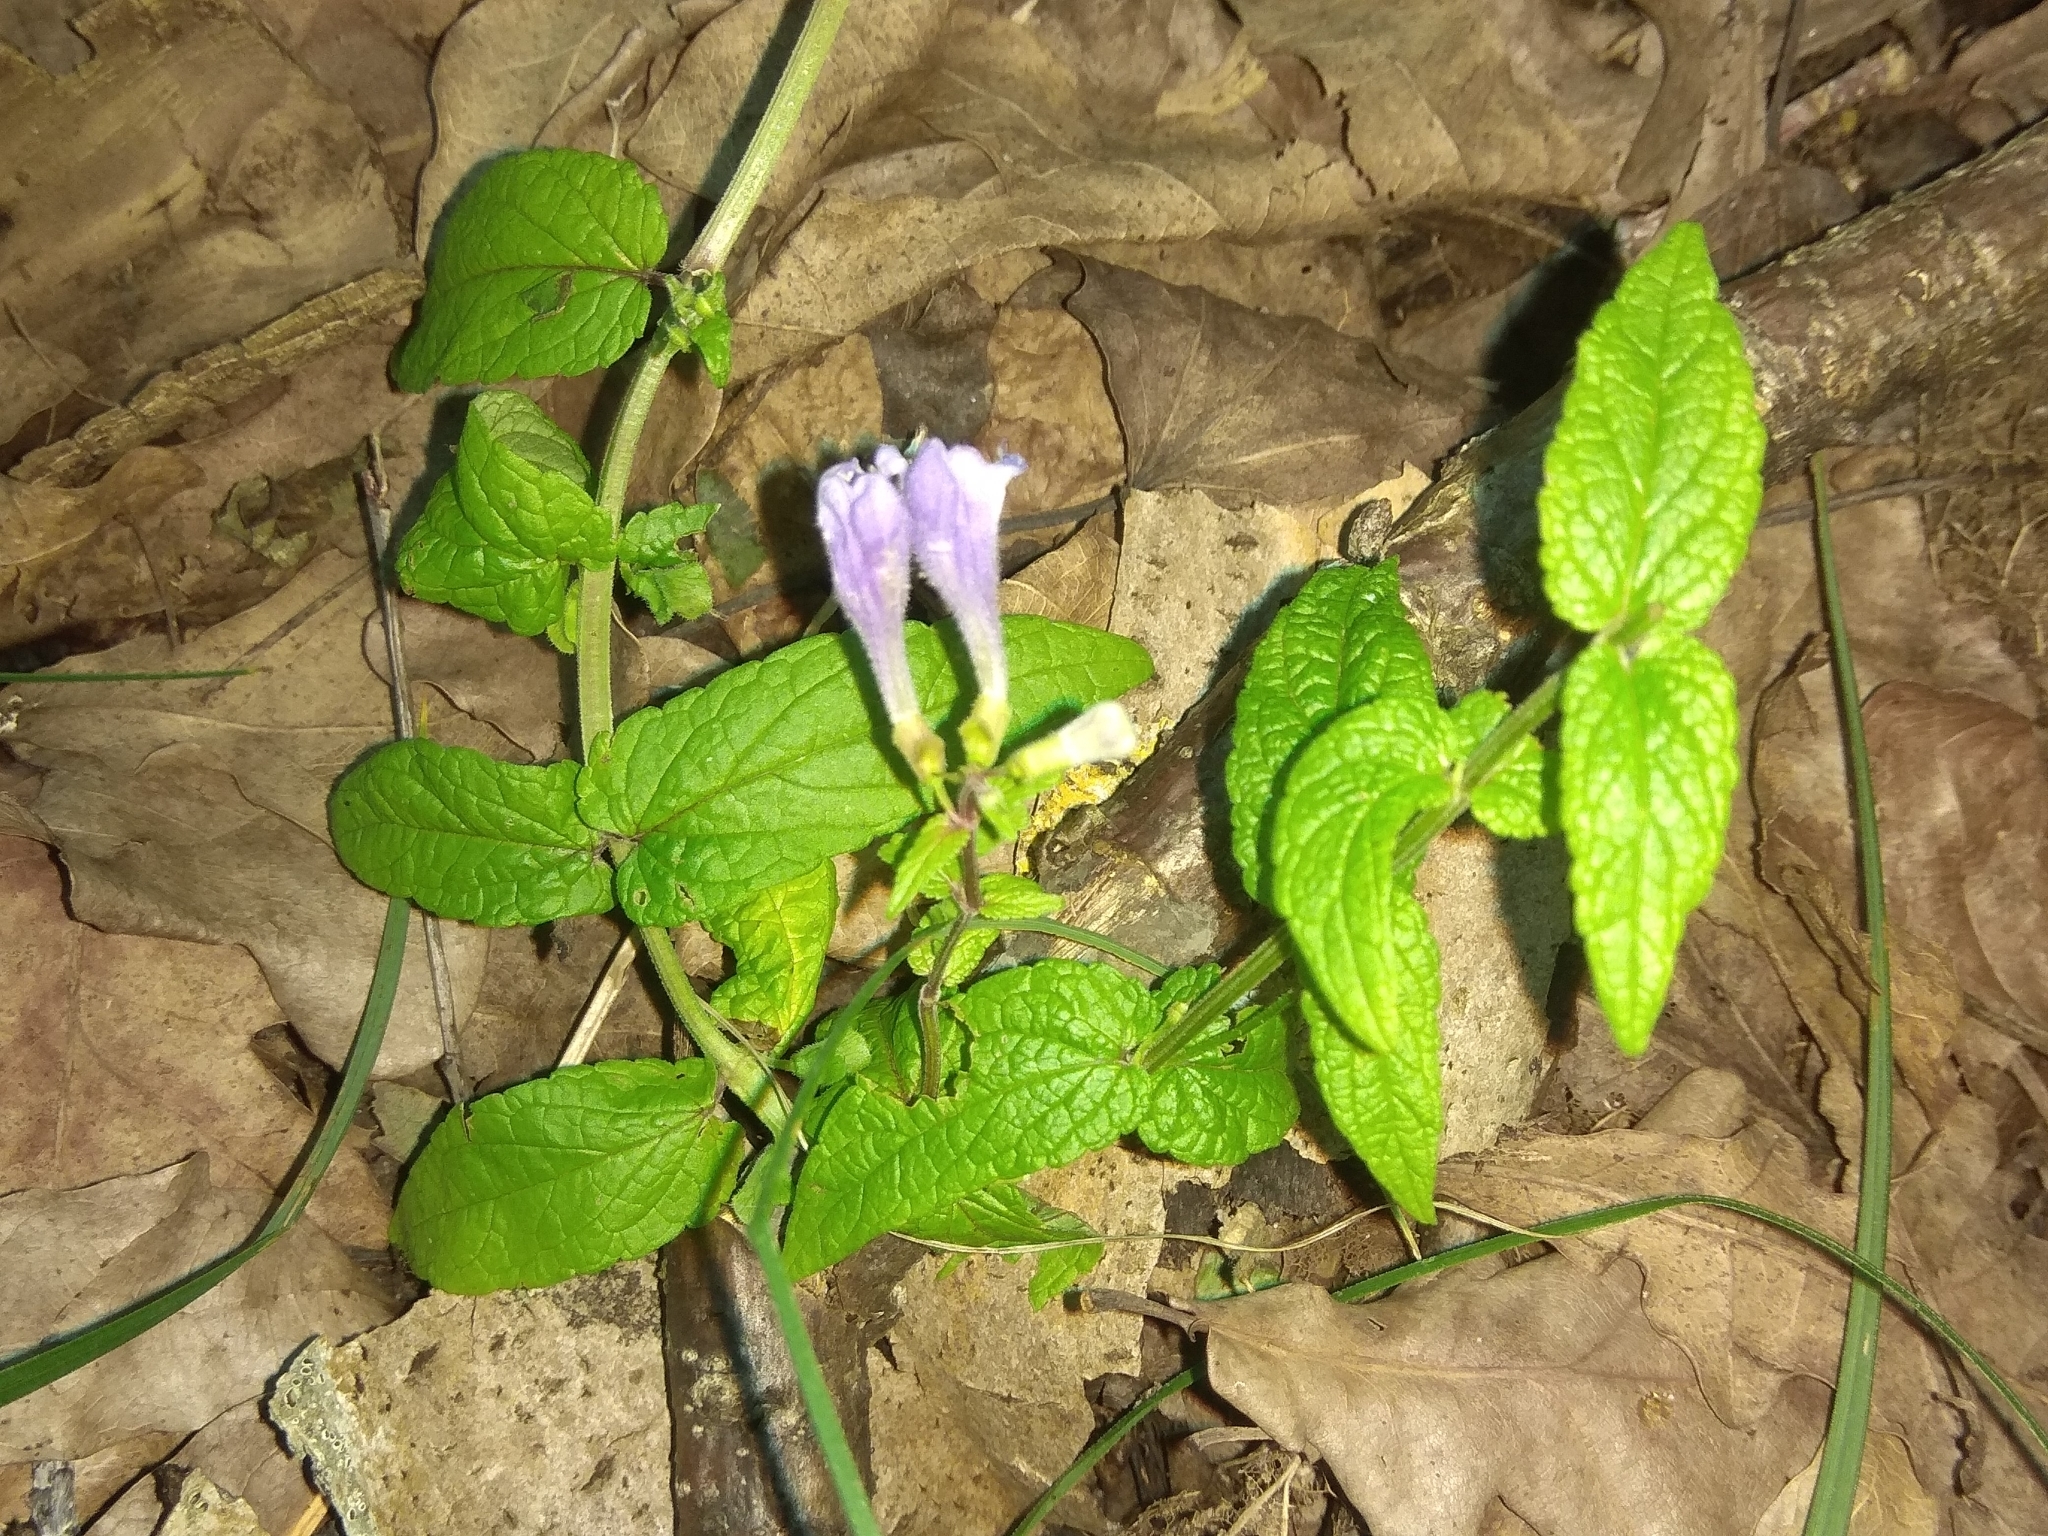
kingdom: Plantae
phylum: Tracheophyta
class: Magnoliopsida
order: Lamiales
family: Lamiaceae
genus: Scutellaria
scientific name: Scutellaria galericulata
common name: Skullcap
